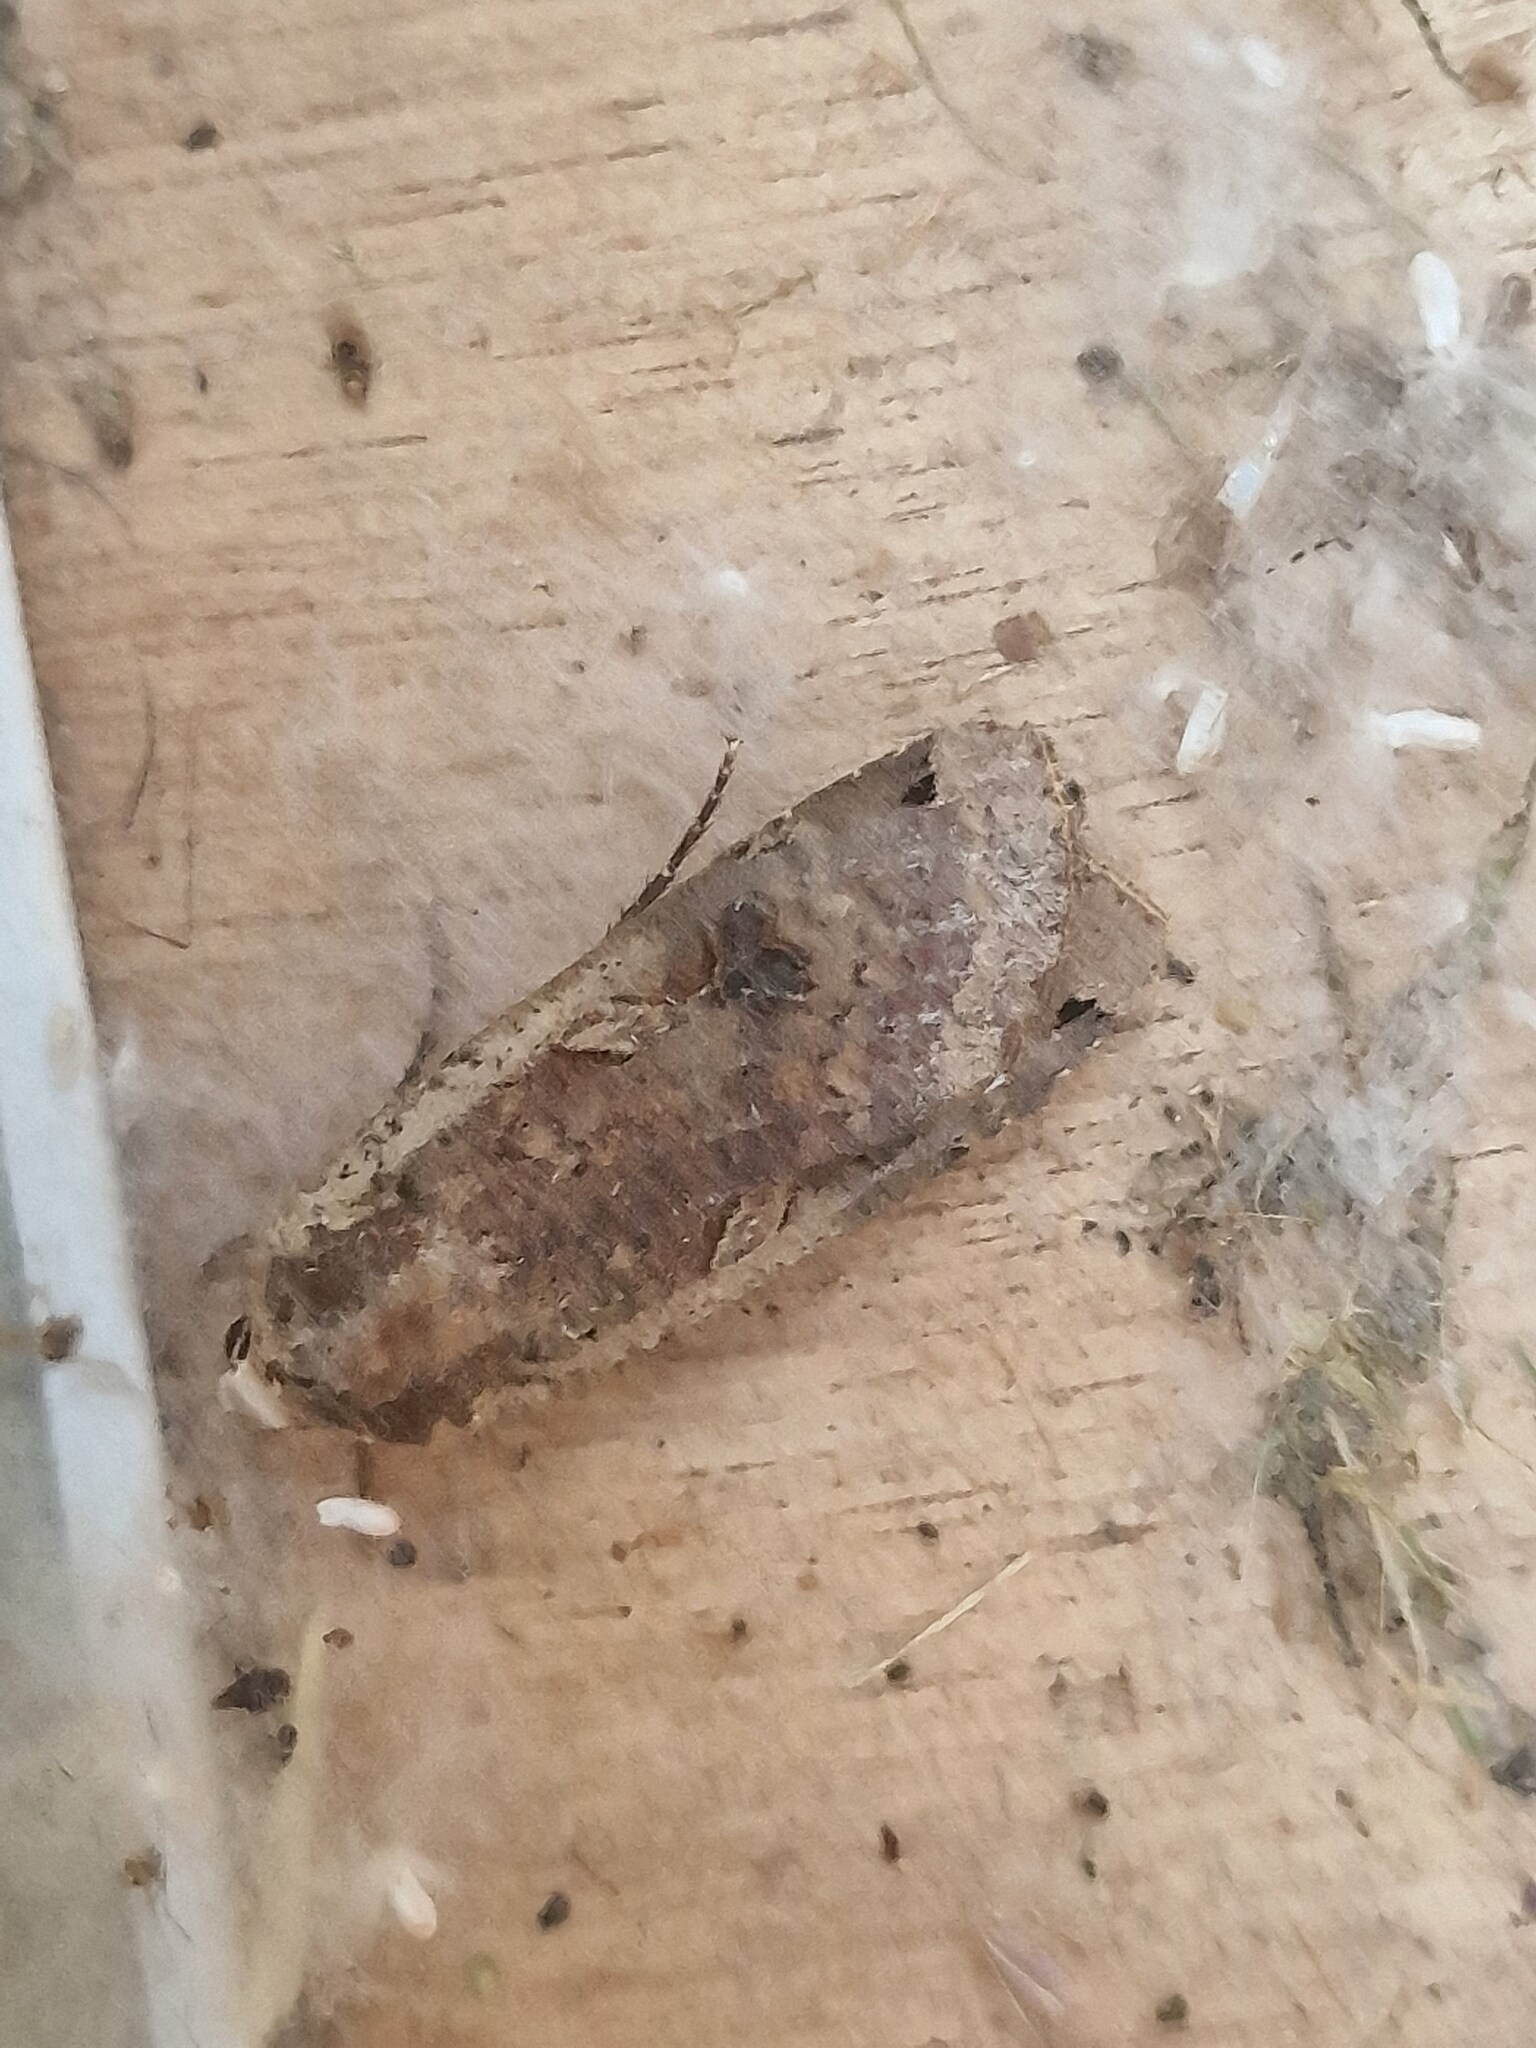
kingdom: Animalia
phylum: Arthropoda
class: Insecta
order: Lepidoptera
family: Noctuidae
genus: Noctua
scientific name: Noctua pronuba
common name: Large yellow underwing
